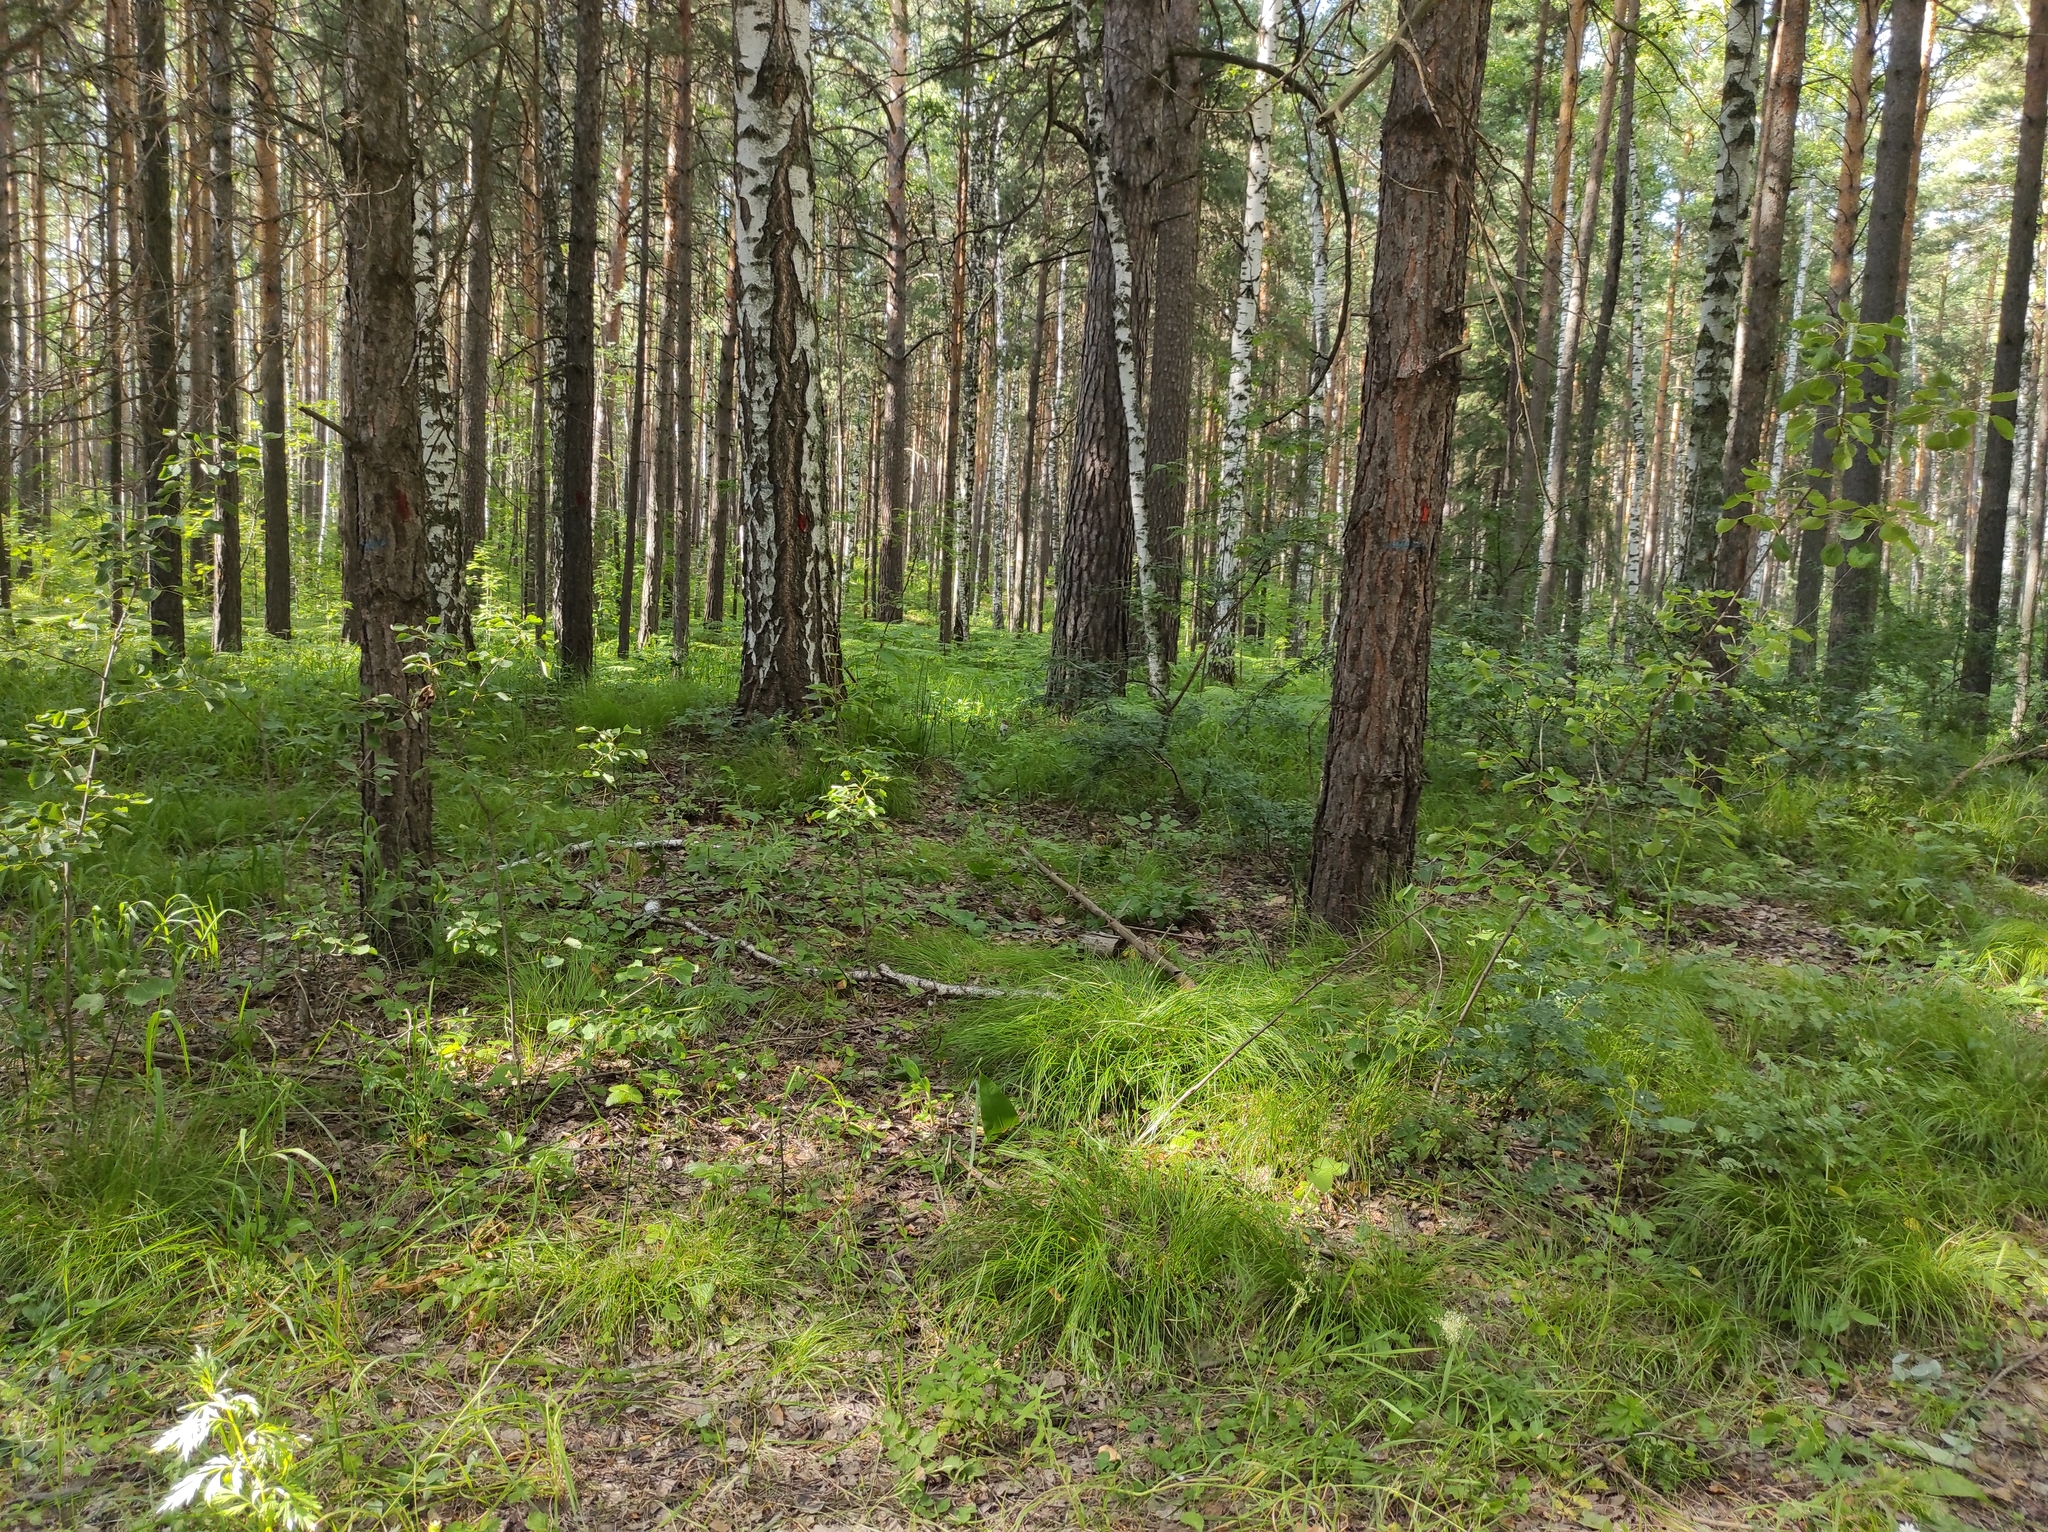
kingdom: Plantae
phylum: Tracheophyta
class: Pinopsida
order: Pinales
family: Pinaceae
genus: Pinus
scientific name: Pinus sylvestris
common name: Scots pine
